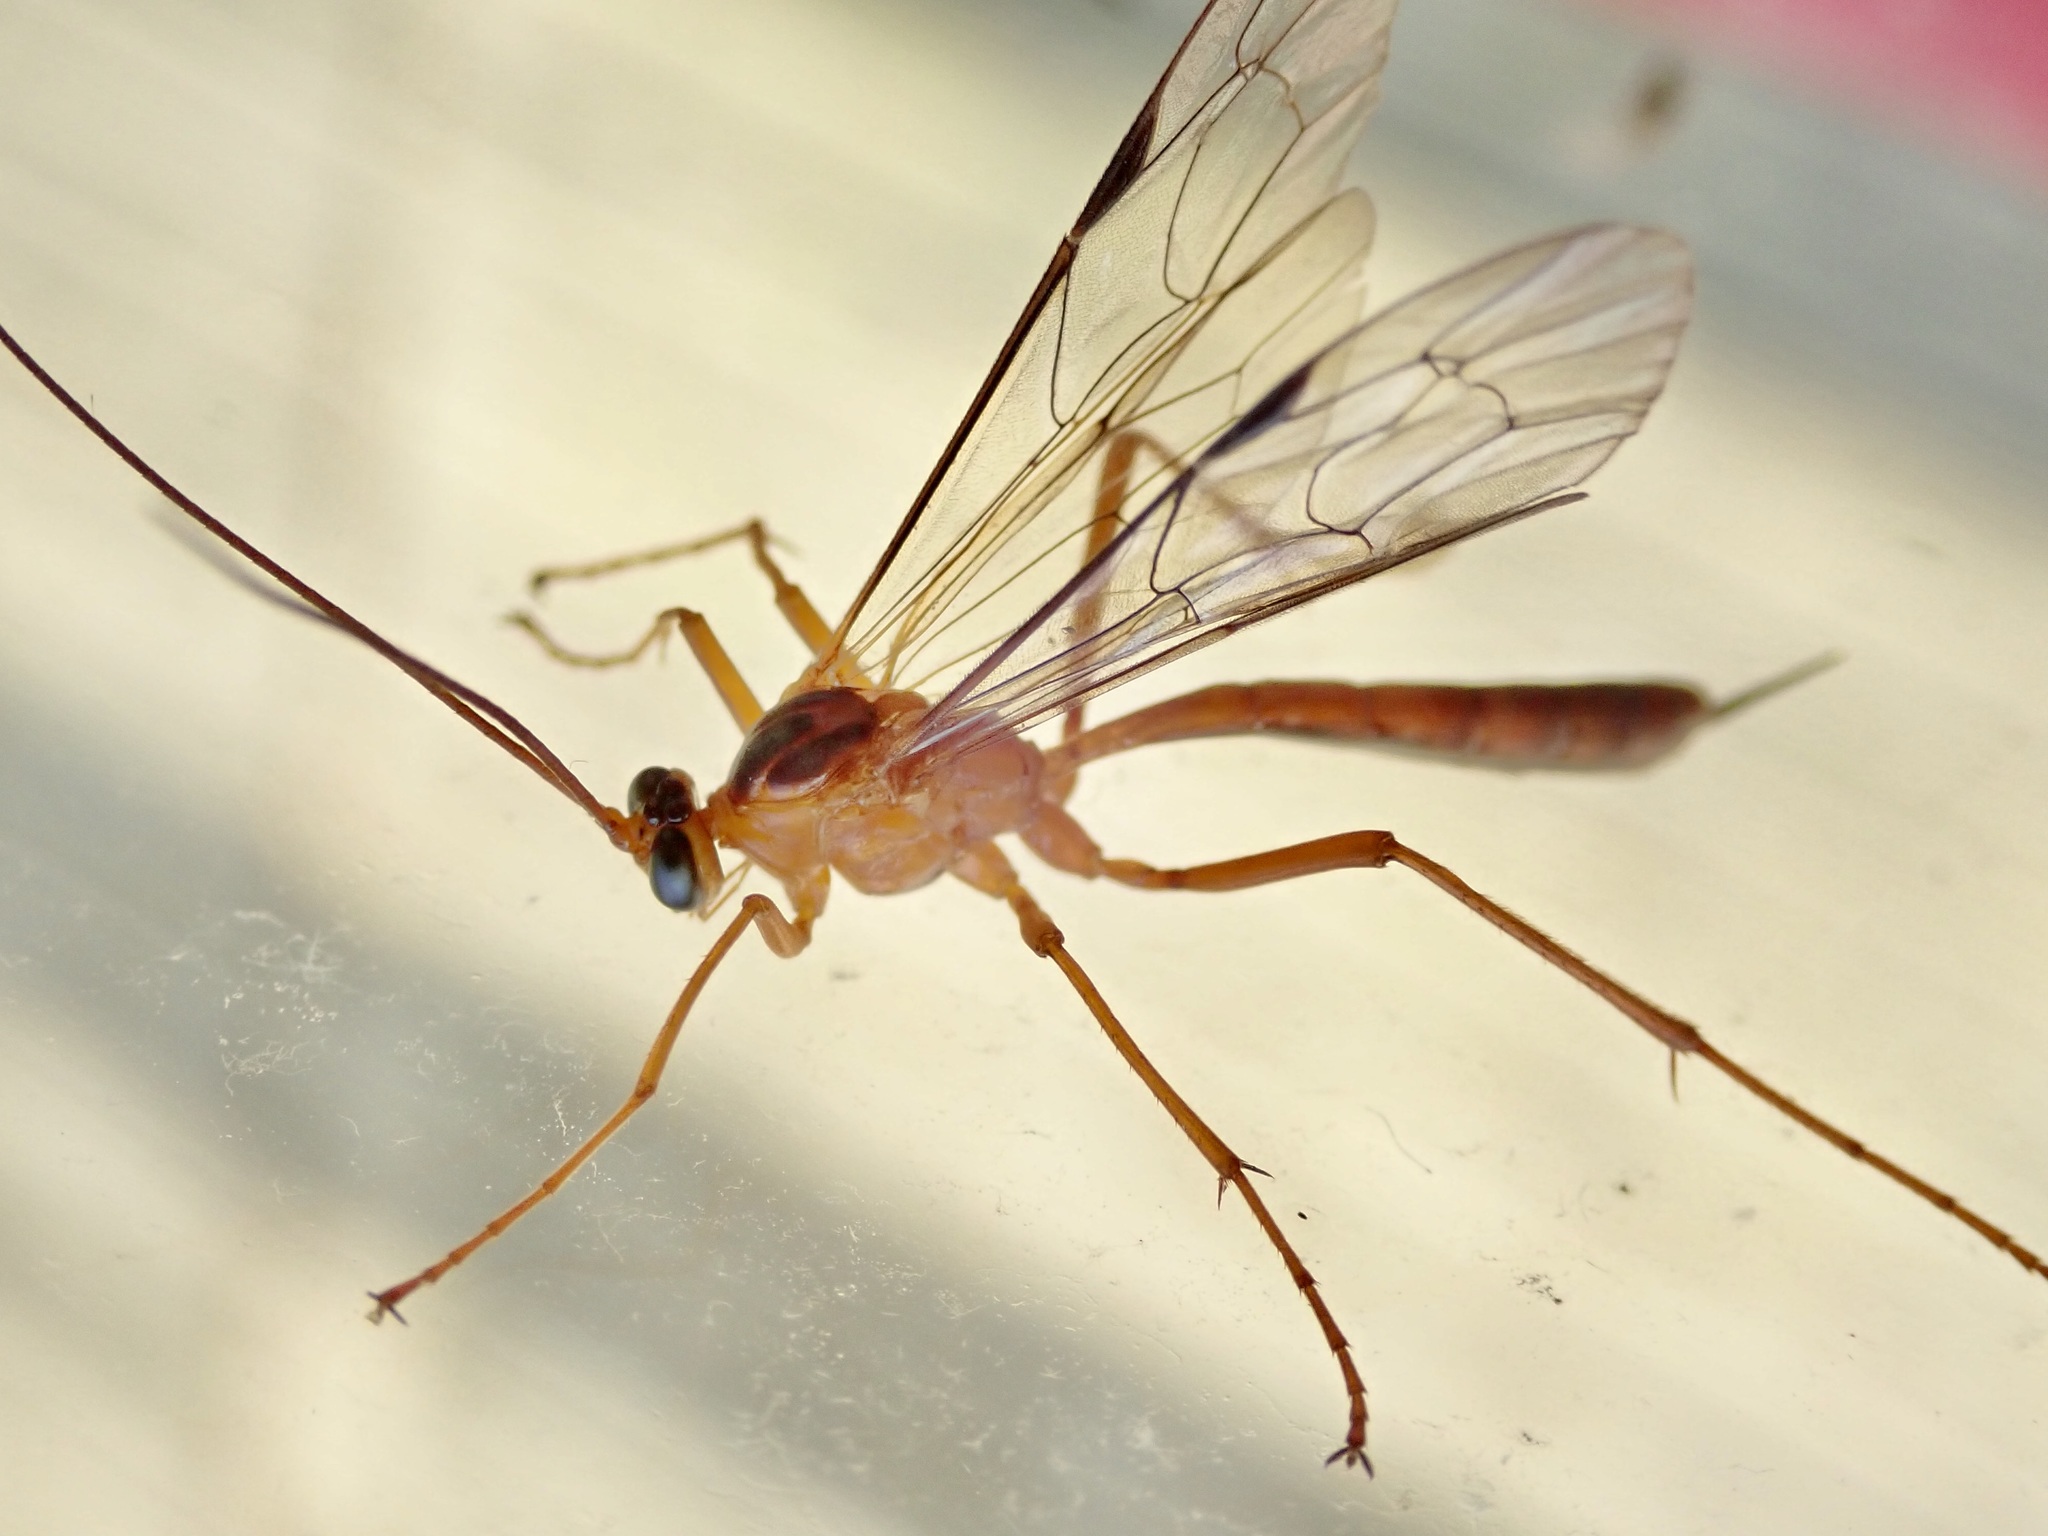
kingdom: Animalia
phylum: Arthropoda
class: Insecta
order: Hymenoptera
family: Ichneumonidae
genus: Netelia
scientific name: Netelia ephippiata
